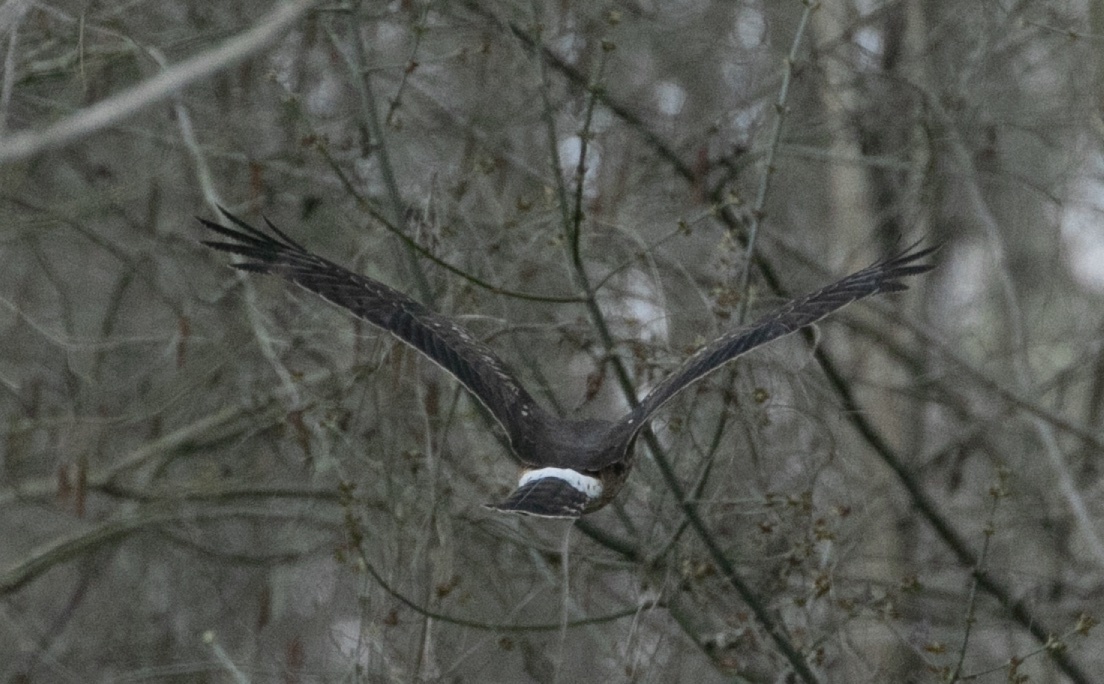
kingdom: Animalia
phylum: Chordata
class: Aves
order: Accipitriformes
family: Accipitridae
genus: Circus
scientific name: Circus cyaneus
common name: Hen harrier
